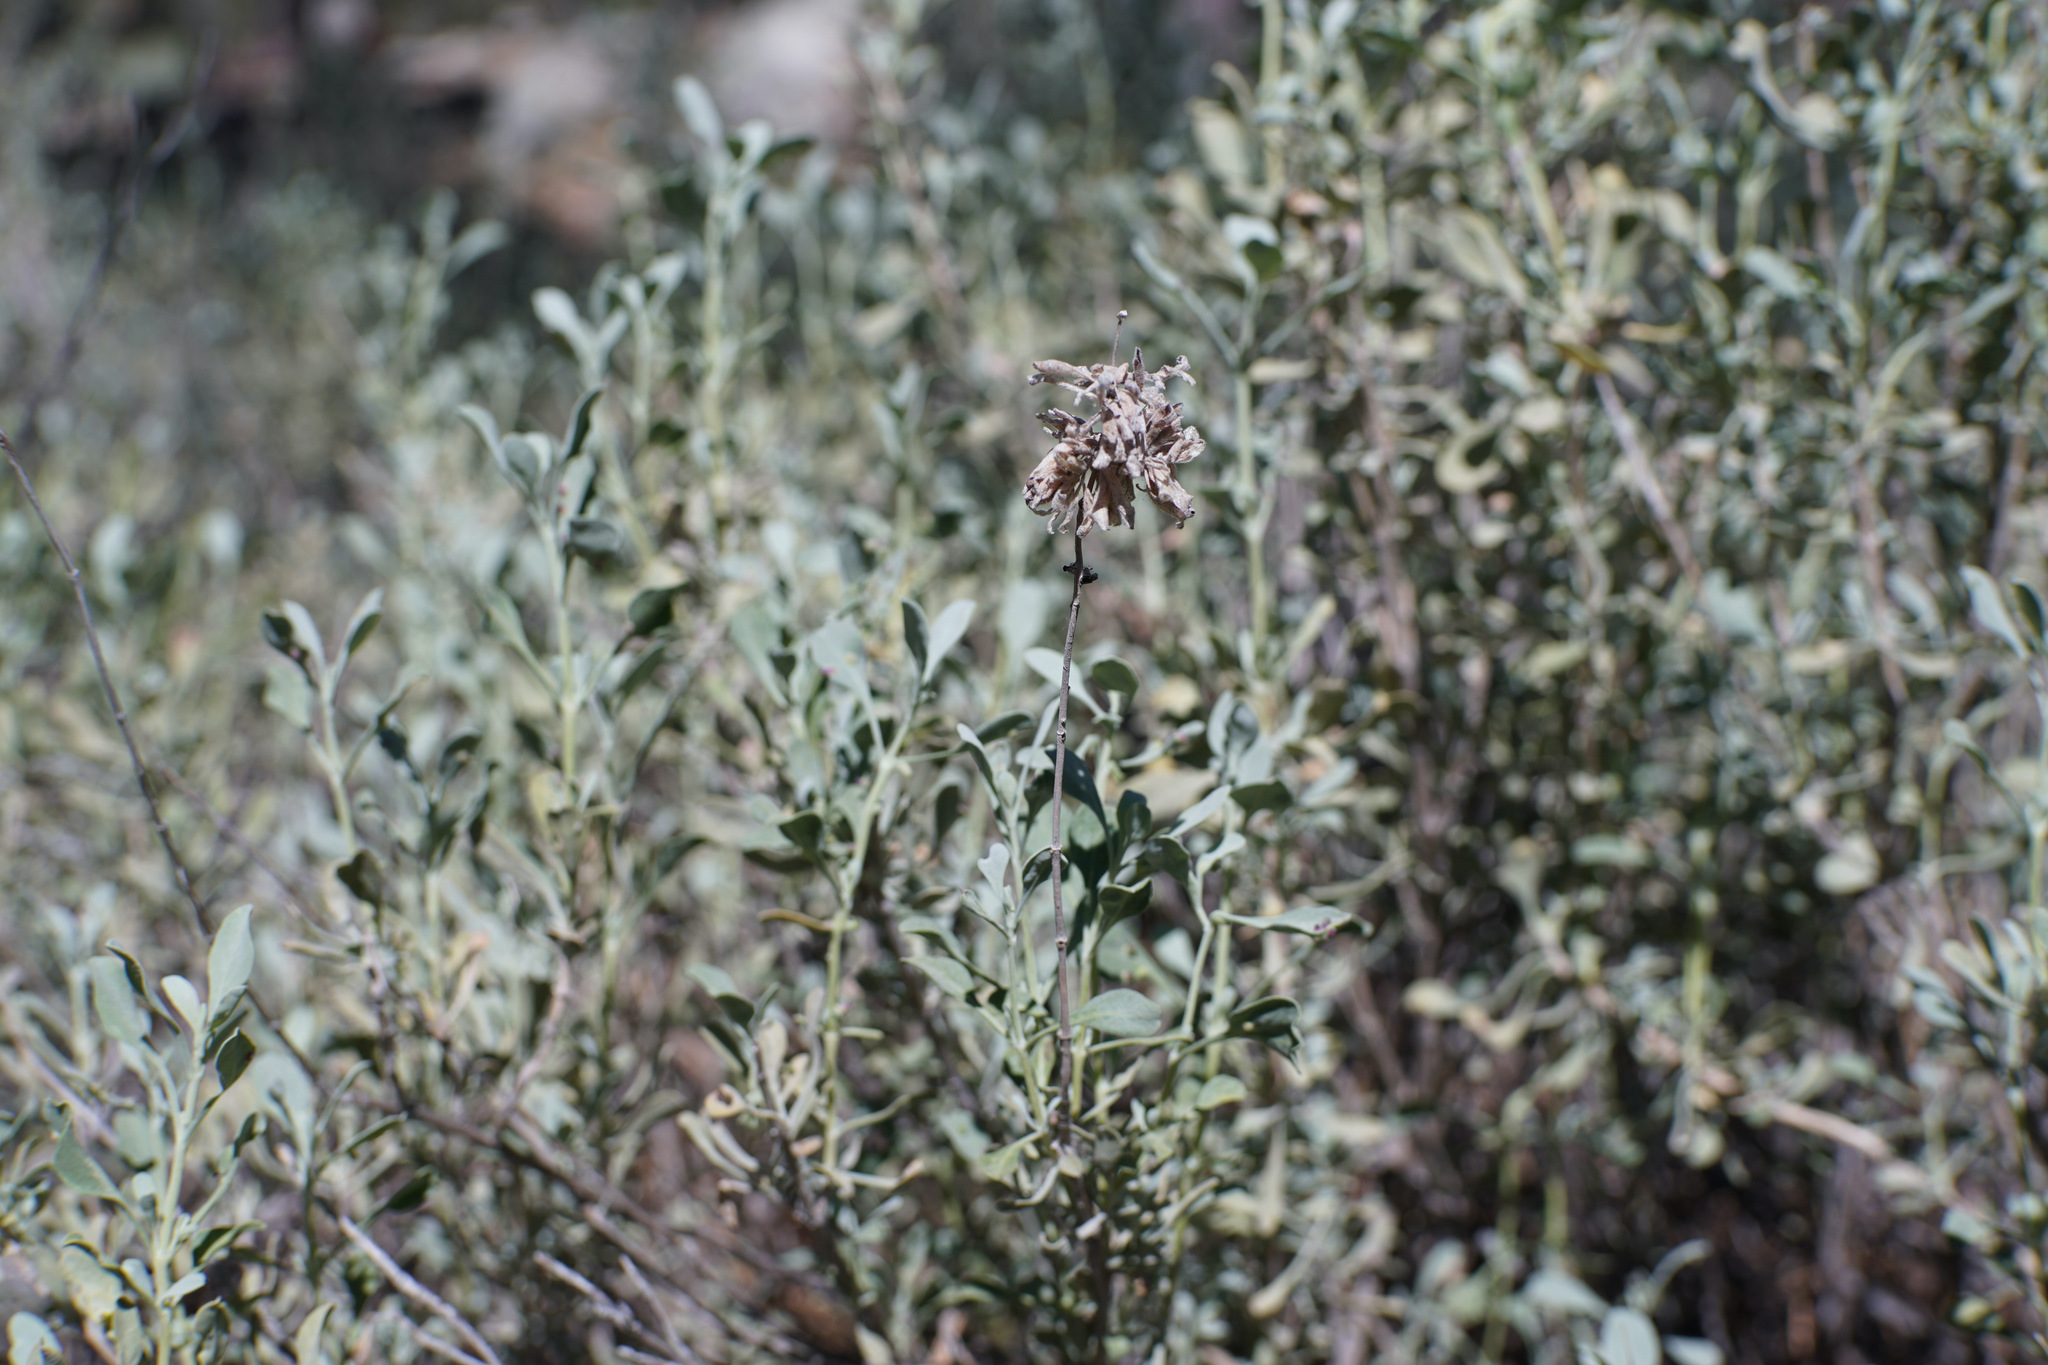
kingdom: Plantae
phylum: Tracheophyta
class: Magnoliopsida
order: Lamiales
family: Lamiaceae
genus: Salvia
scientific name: Salvia pachyphylla
